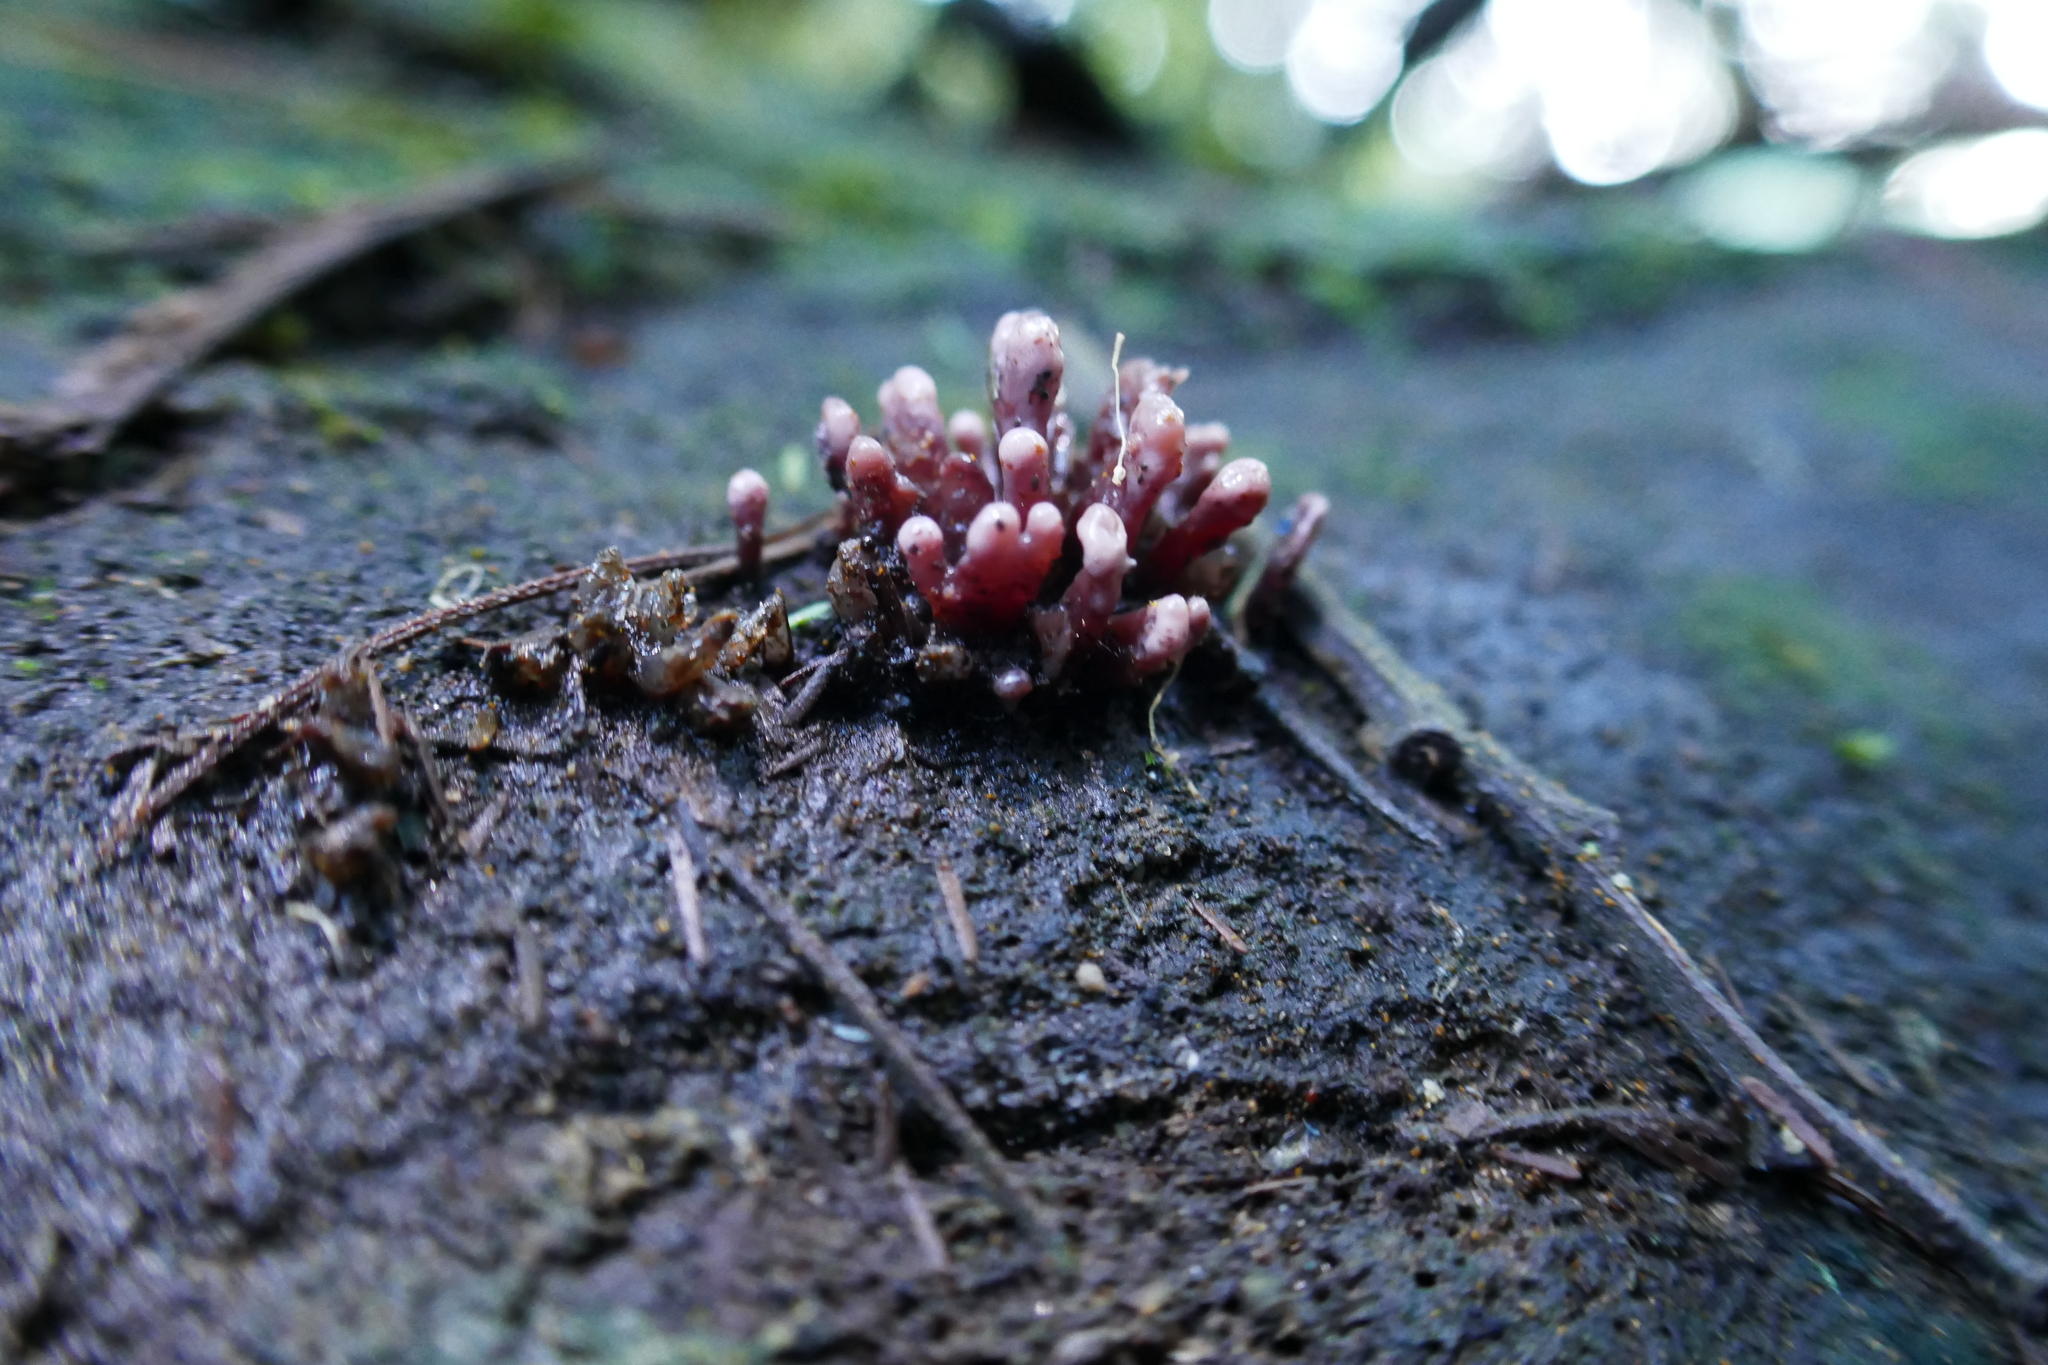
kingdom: Fungi
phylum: Ascomycota
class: Leotiomycetes
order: Helotiales
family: Gelatinodiscaceae
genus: Ascocoryne
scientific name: Ascocoryne sarcoides
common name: Purple jellydisc
